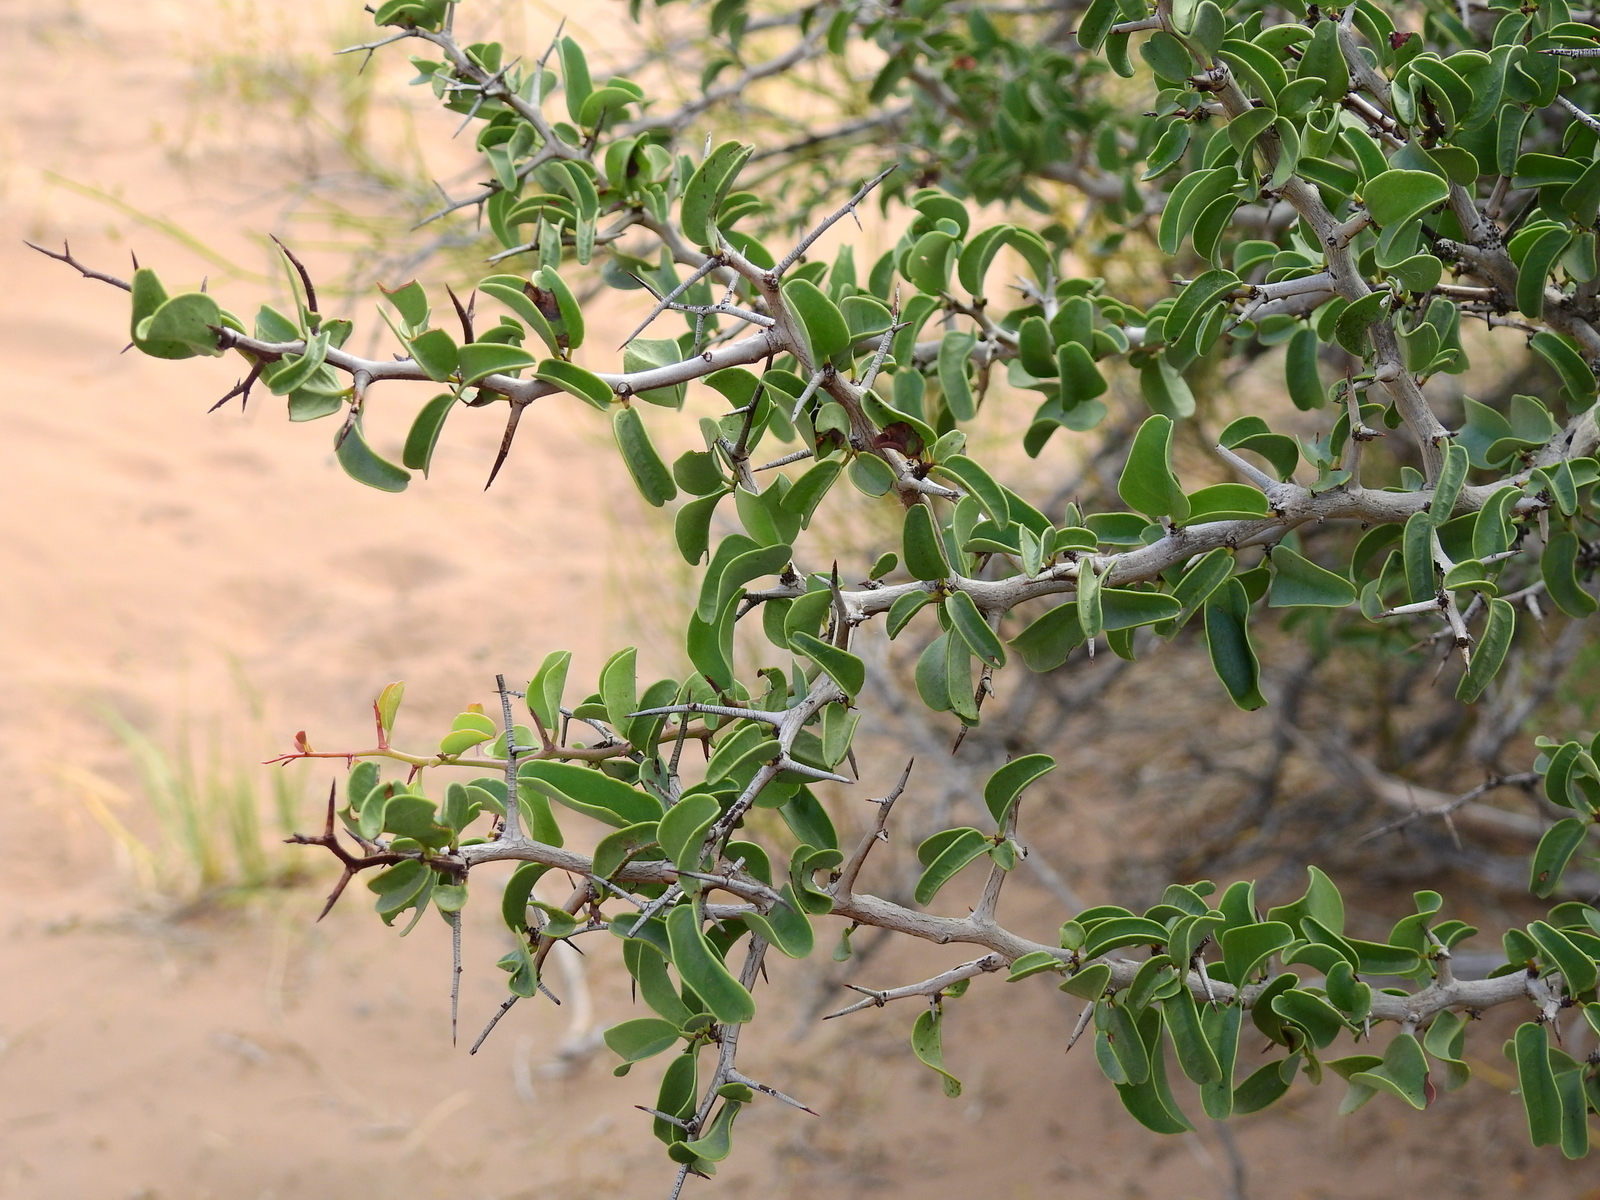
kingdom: Plantae
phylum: Tracheophyta
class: Magnoliopsida
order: Santalales
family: Ximeniaceae
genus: Ximenia
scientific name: Ximenia americana
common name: Tallowwood
